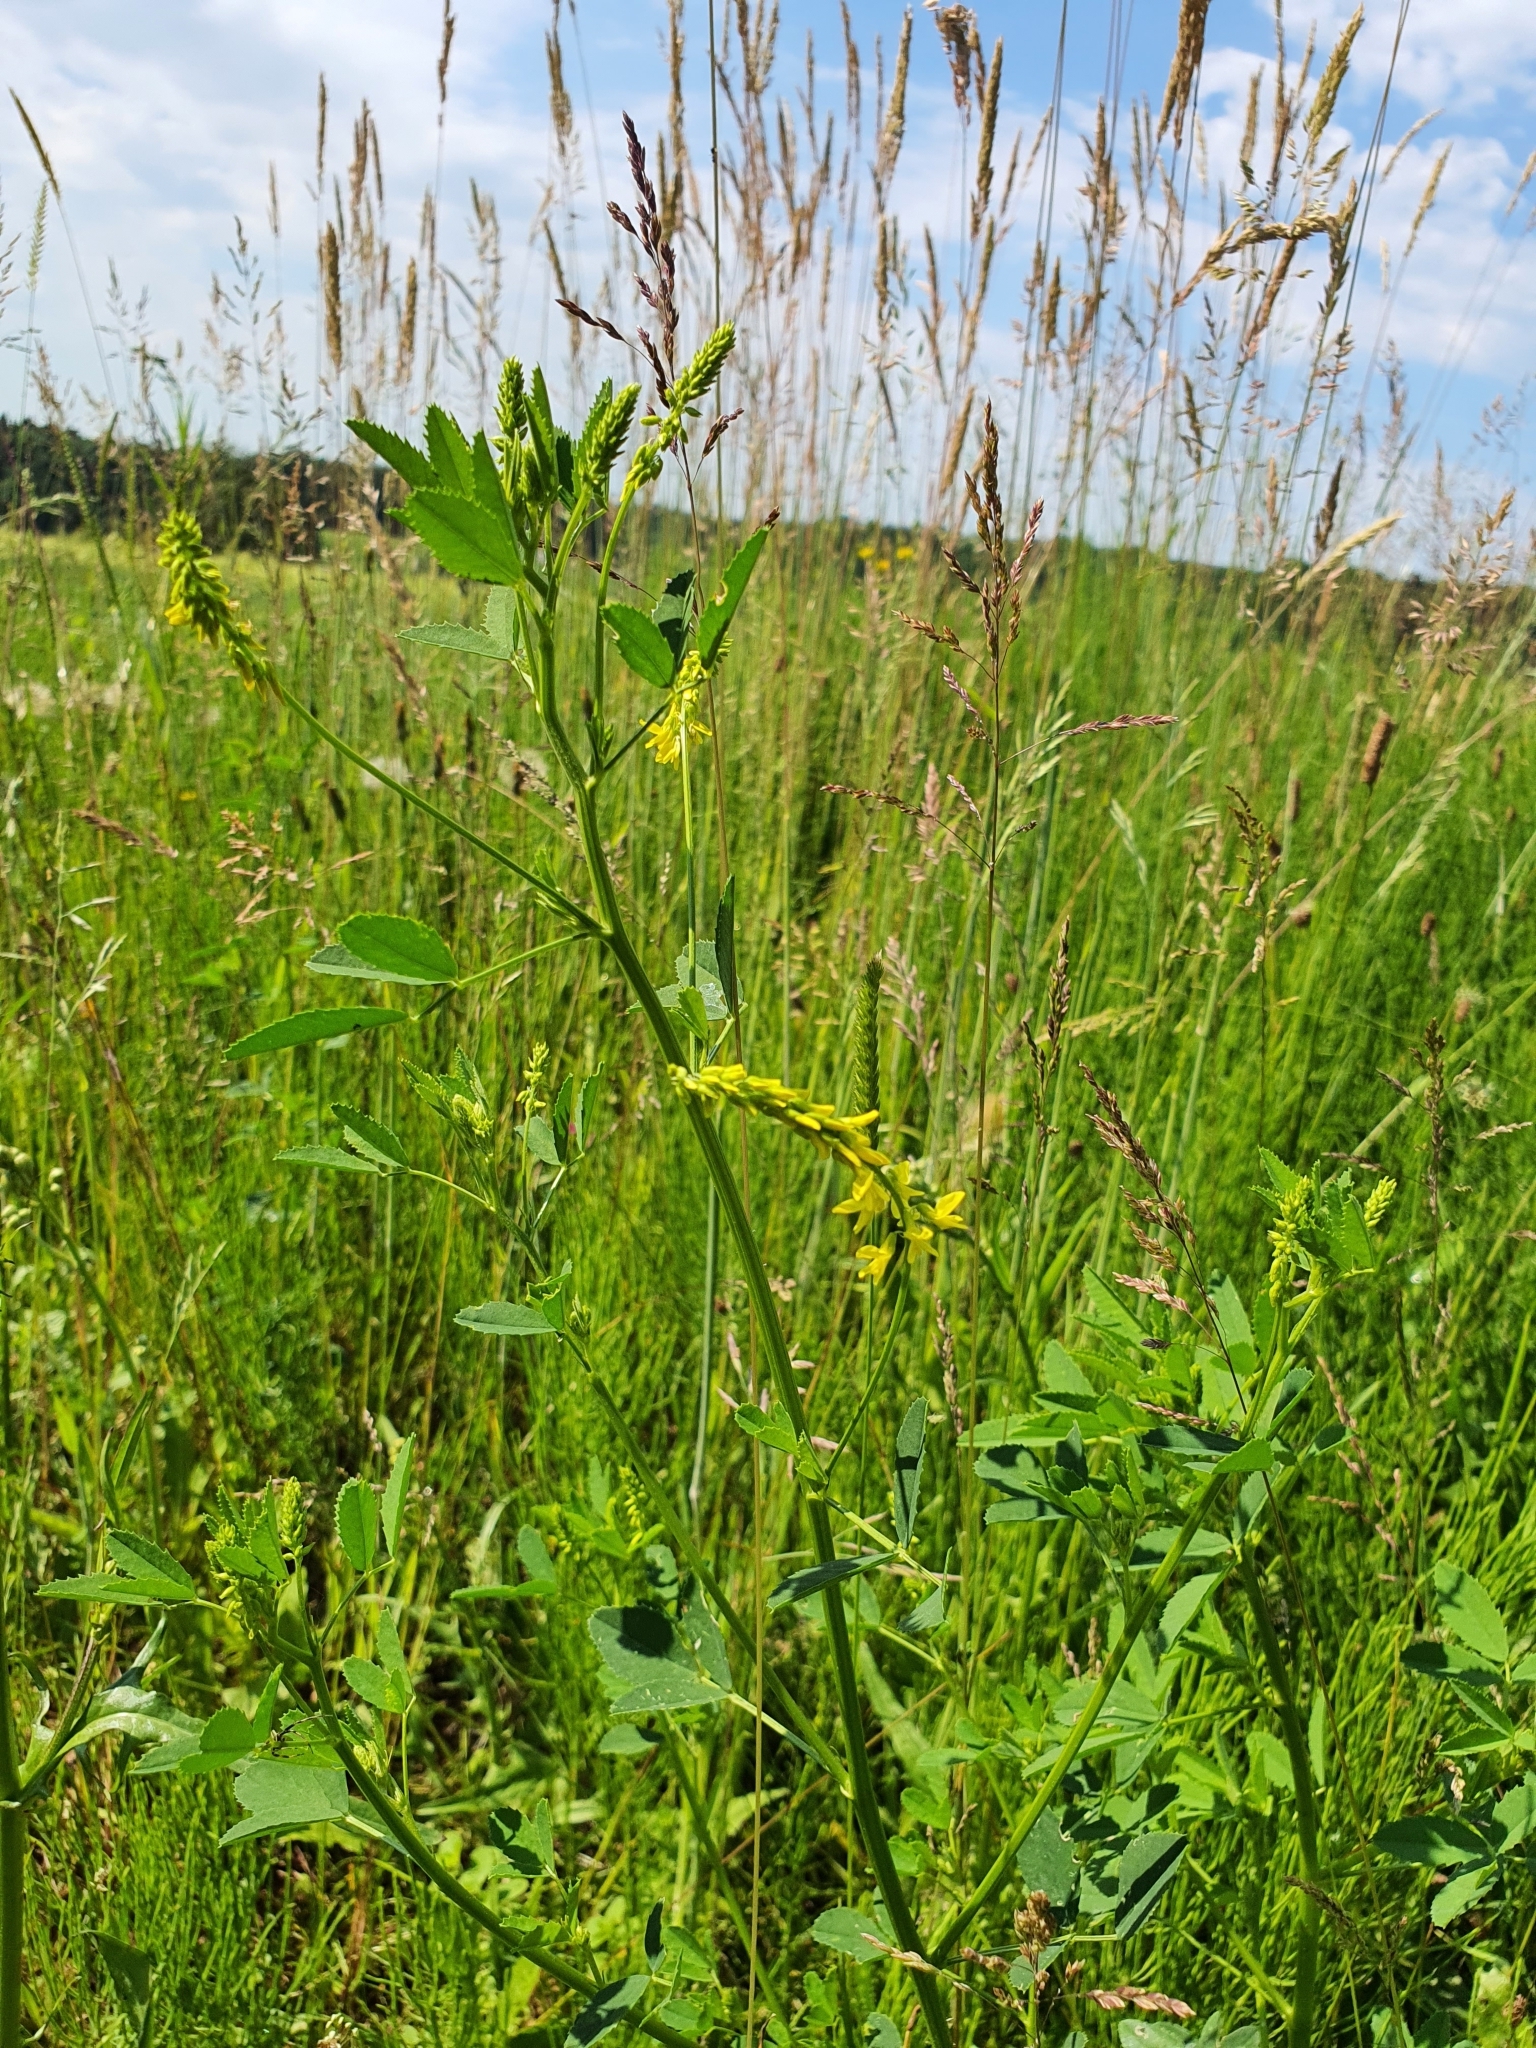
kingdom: Plantae
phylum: Tracheophyta
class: Magnoliopsida
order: Fabales
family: Fabaceae
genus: Melilotus
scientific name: Melilotus officinalis
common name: Sweetclover
